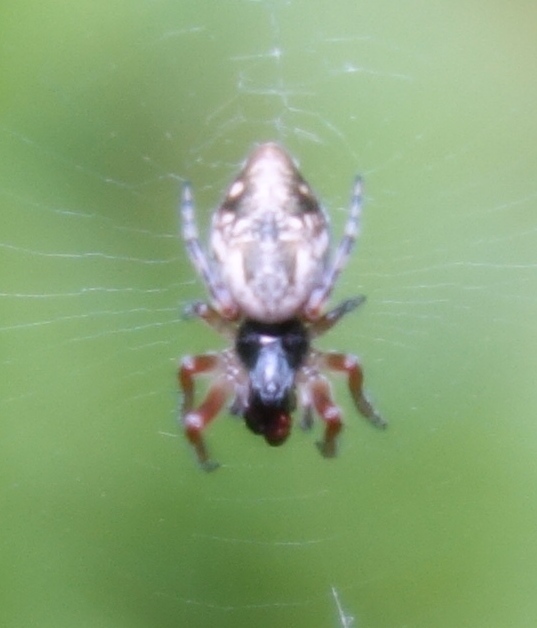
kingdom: Animalia
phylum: Arthropoda
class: Arachnida
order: Araneae
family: Araneidae
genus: Cyclosa
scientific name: Cyclosa conica
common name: Conical trashline orbweaver
